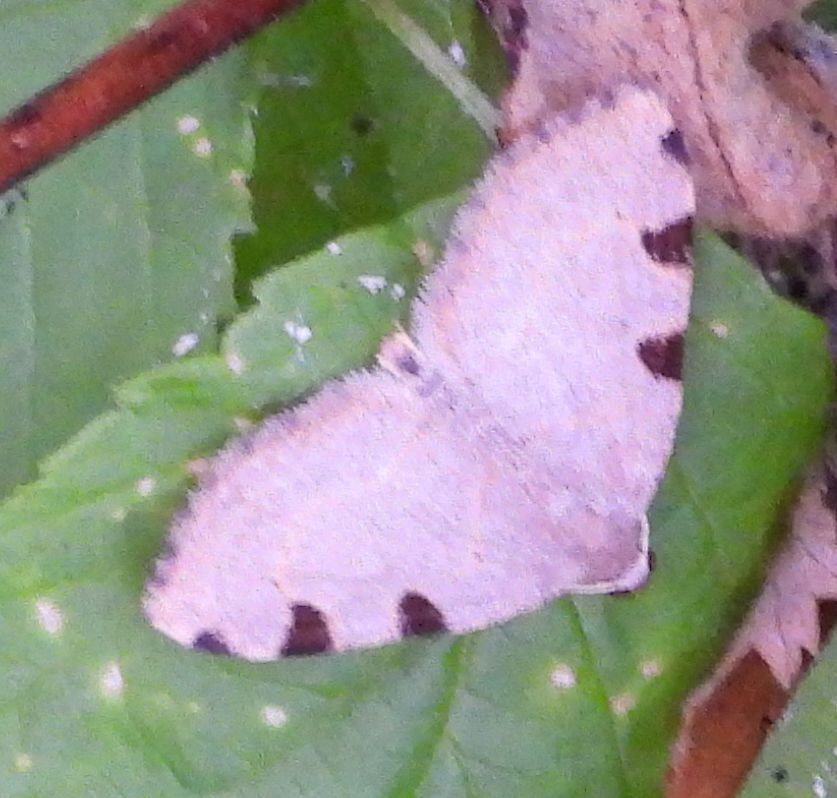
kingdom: Animalia
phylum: Arthropoda
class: Insecta
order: Lepidoptera
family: Geometridae
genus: Heterophleps
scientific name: Heterophleps triguttaria
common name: Three-spotted fillip
